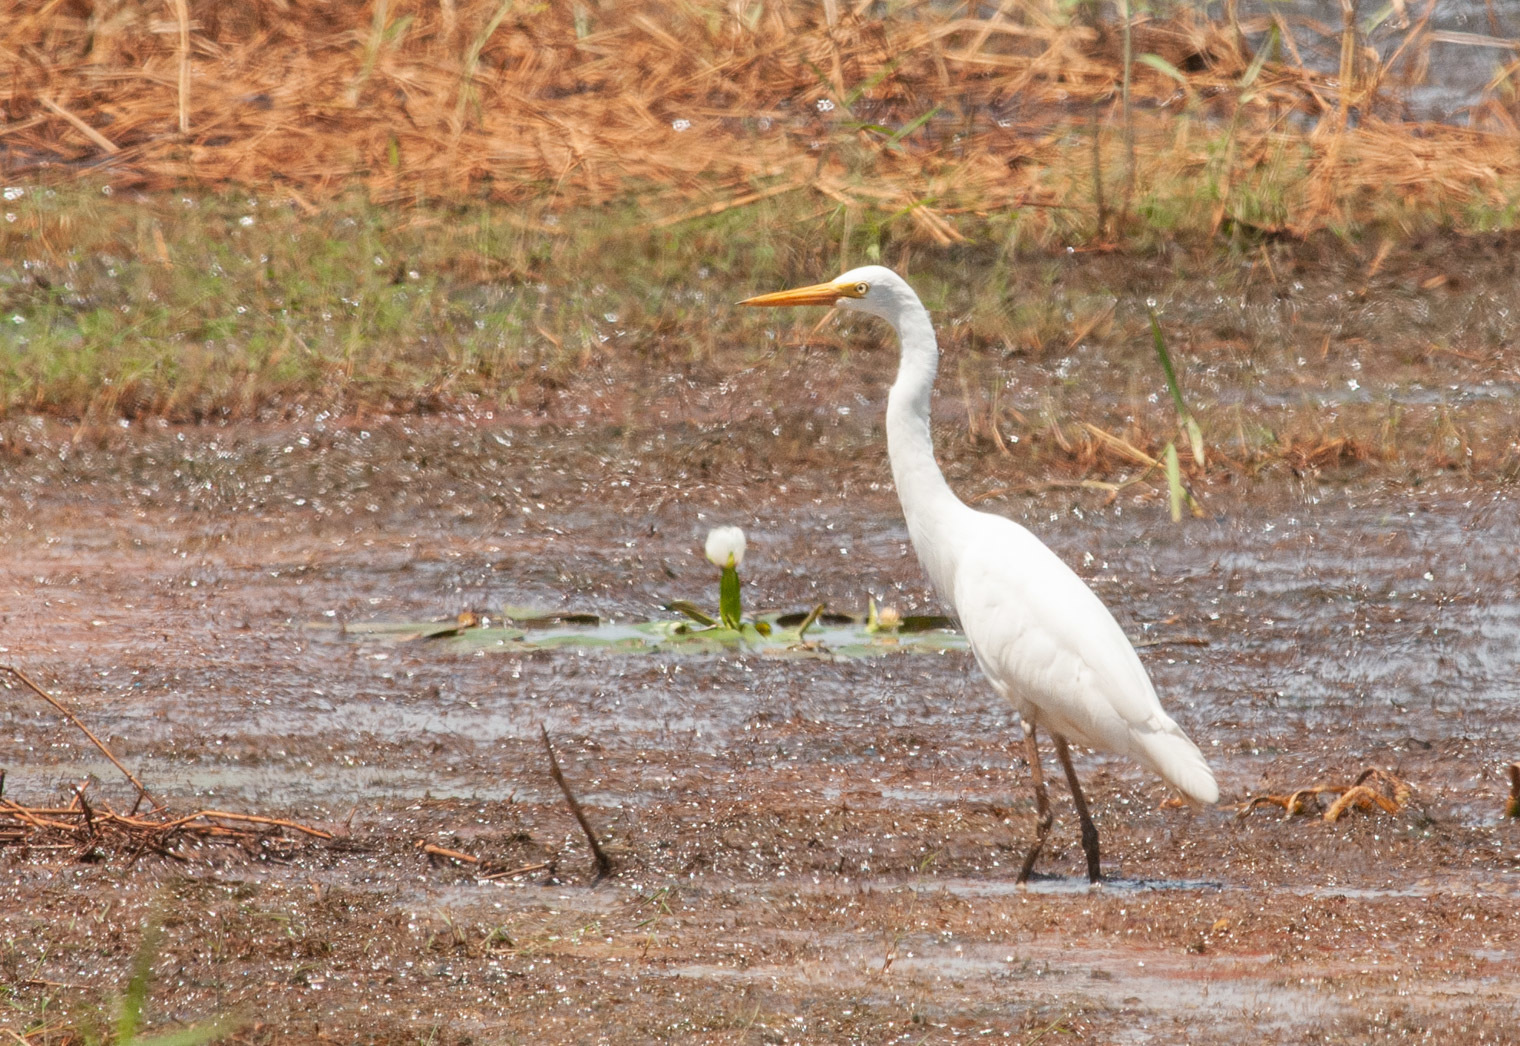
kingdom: Animalia
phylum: Chordata
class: Aves
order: Pelecaniformes
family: Ardeidae
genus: Egretta
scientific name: Egretta intermedia
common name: Intermediate egret
